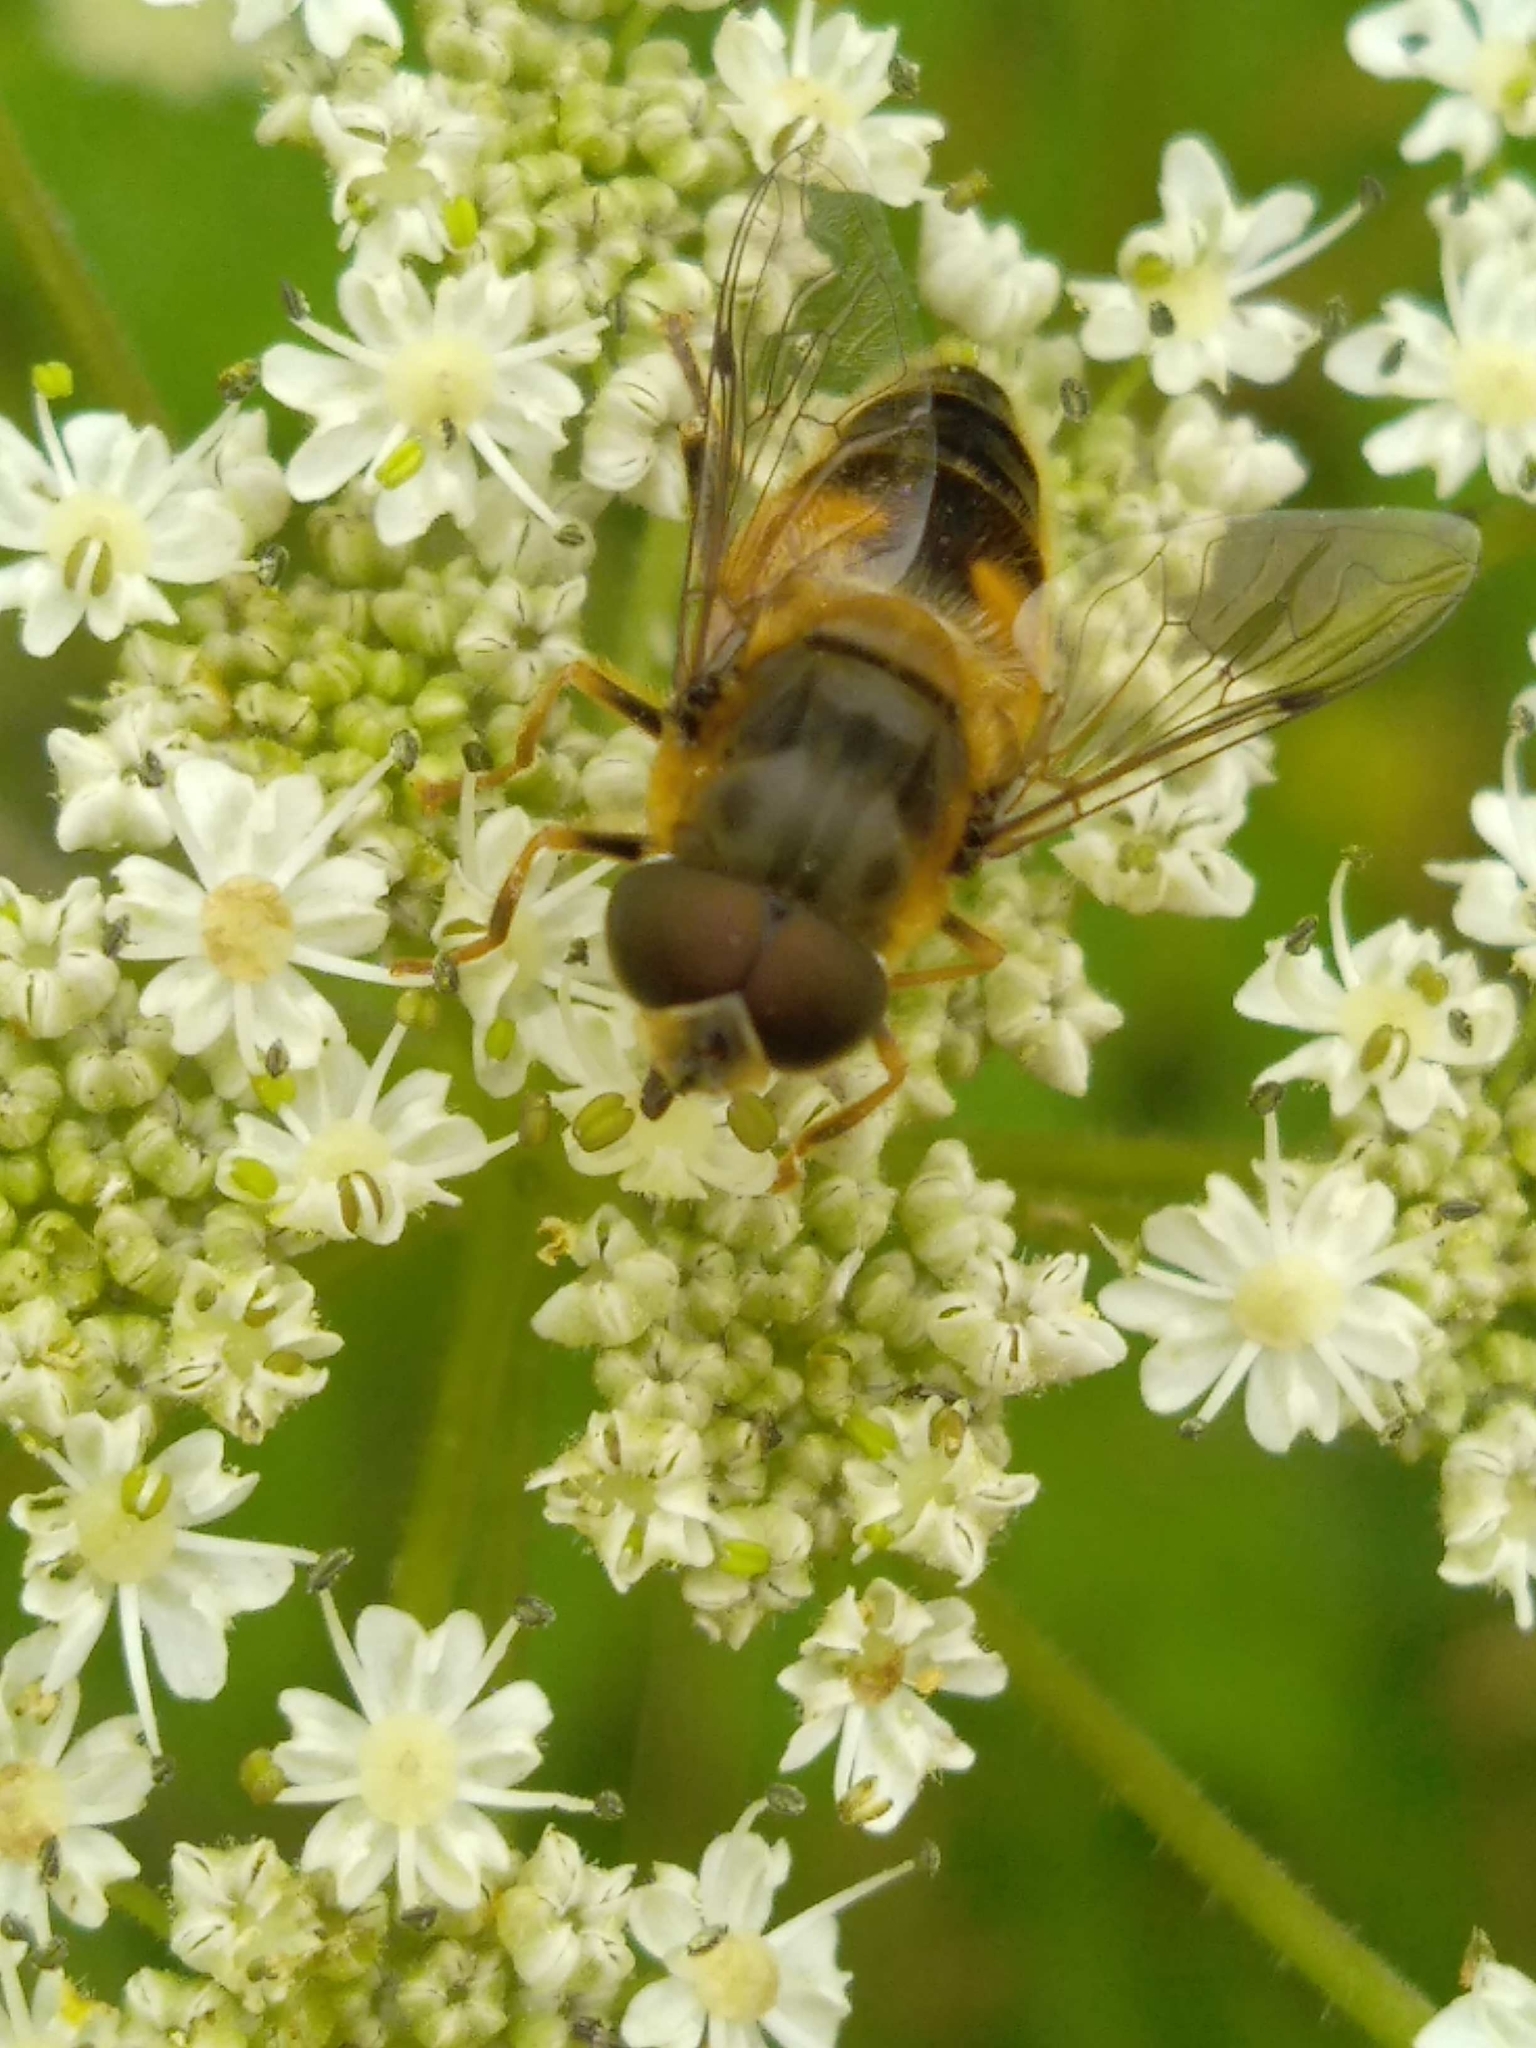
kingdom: Animalia
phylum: Arthropoda
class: Insecta
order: Diptera
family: Syrphidae
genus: Eristalis
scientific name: Eristalis pertinax
